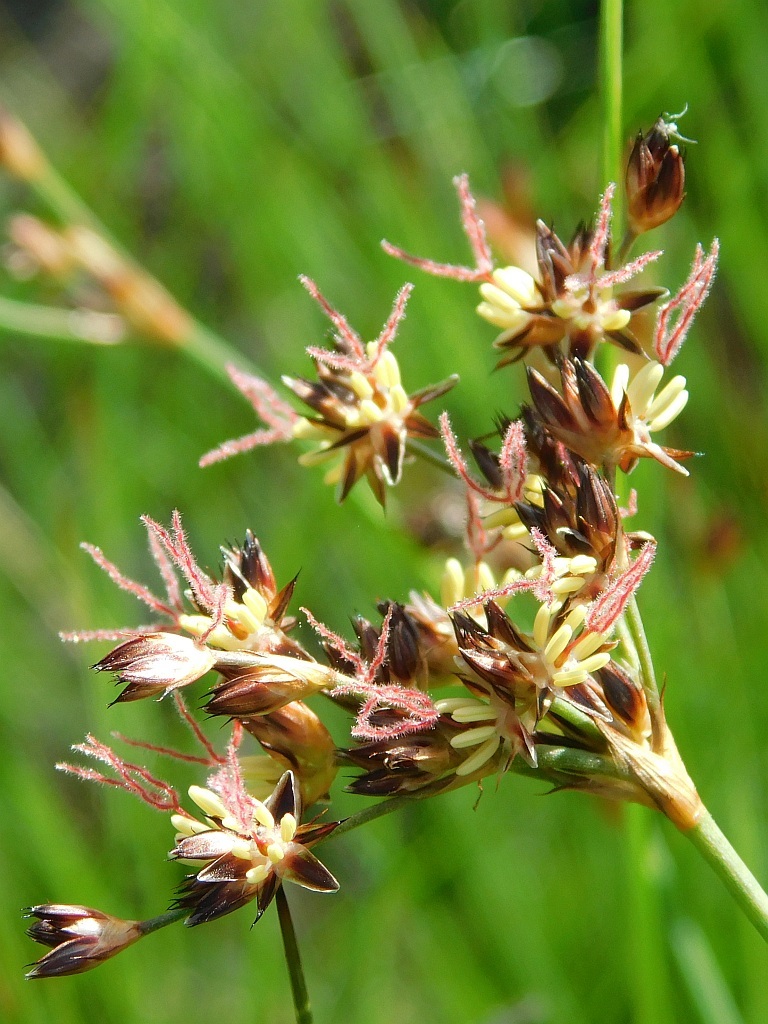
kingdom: Plantae
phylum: Tracheophyta
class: Liliopsida
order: Poales
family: Juncaceae
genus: Juncus
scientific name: Juncus lomatophyllus
